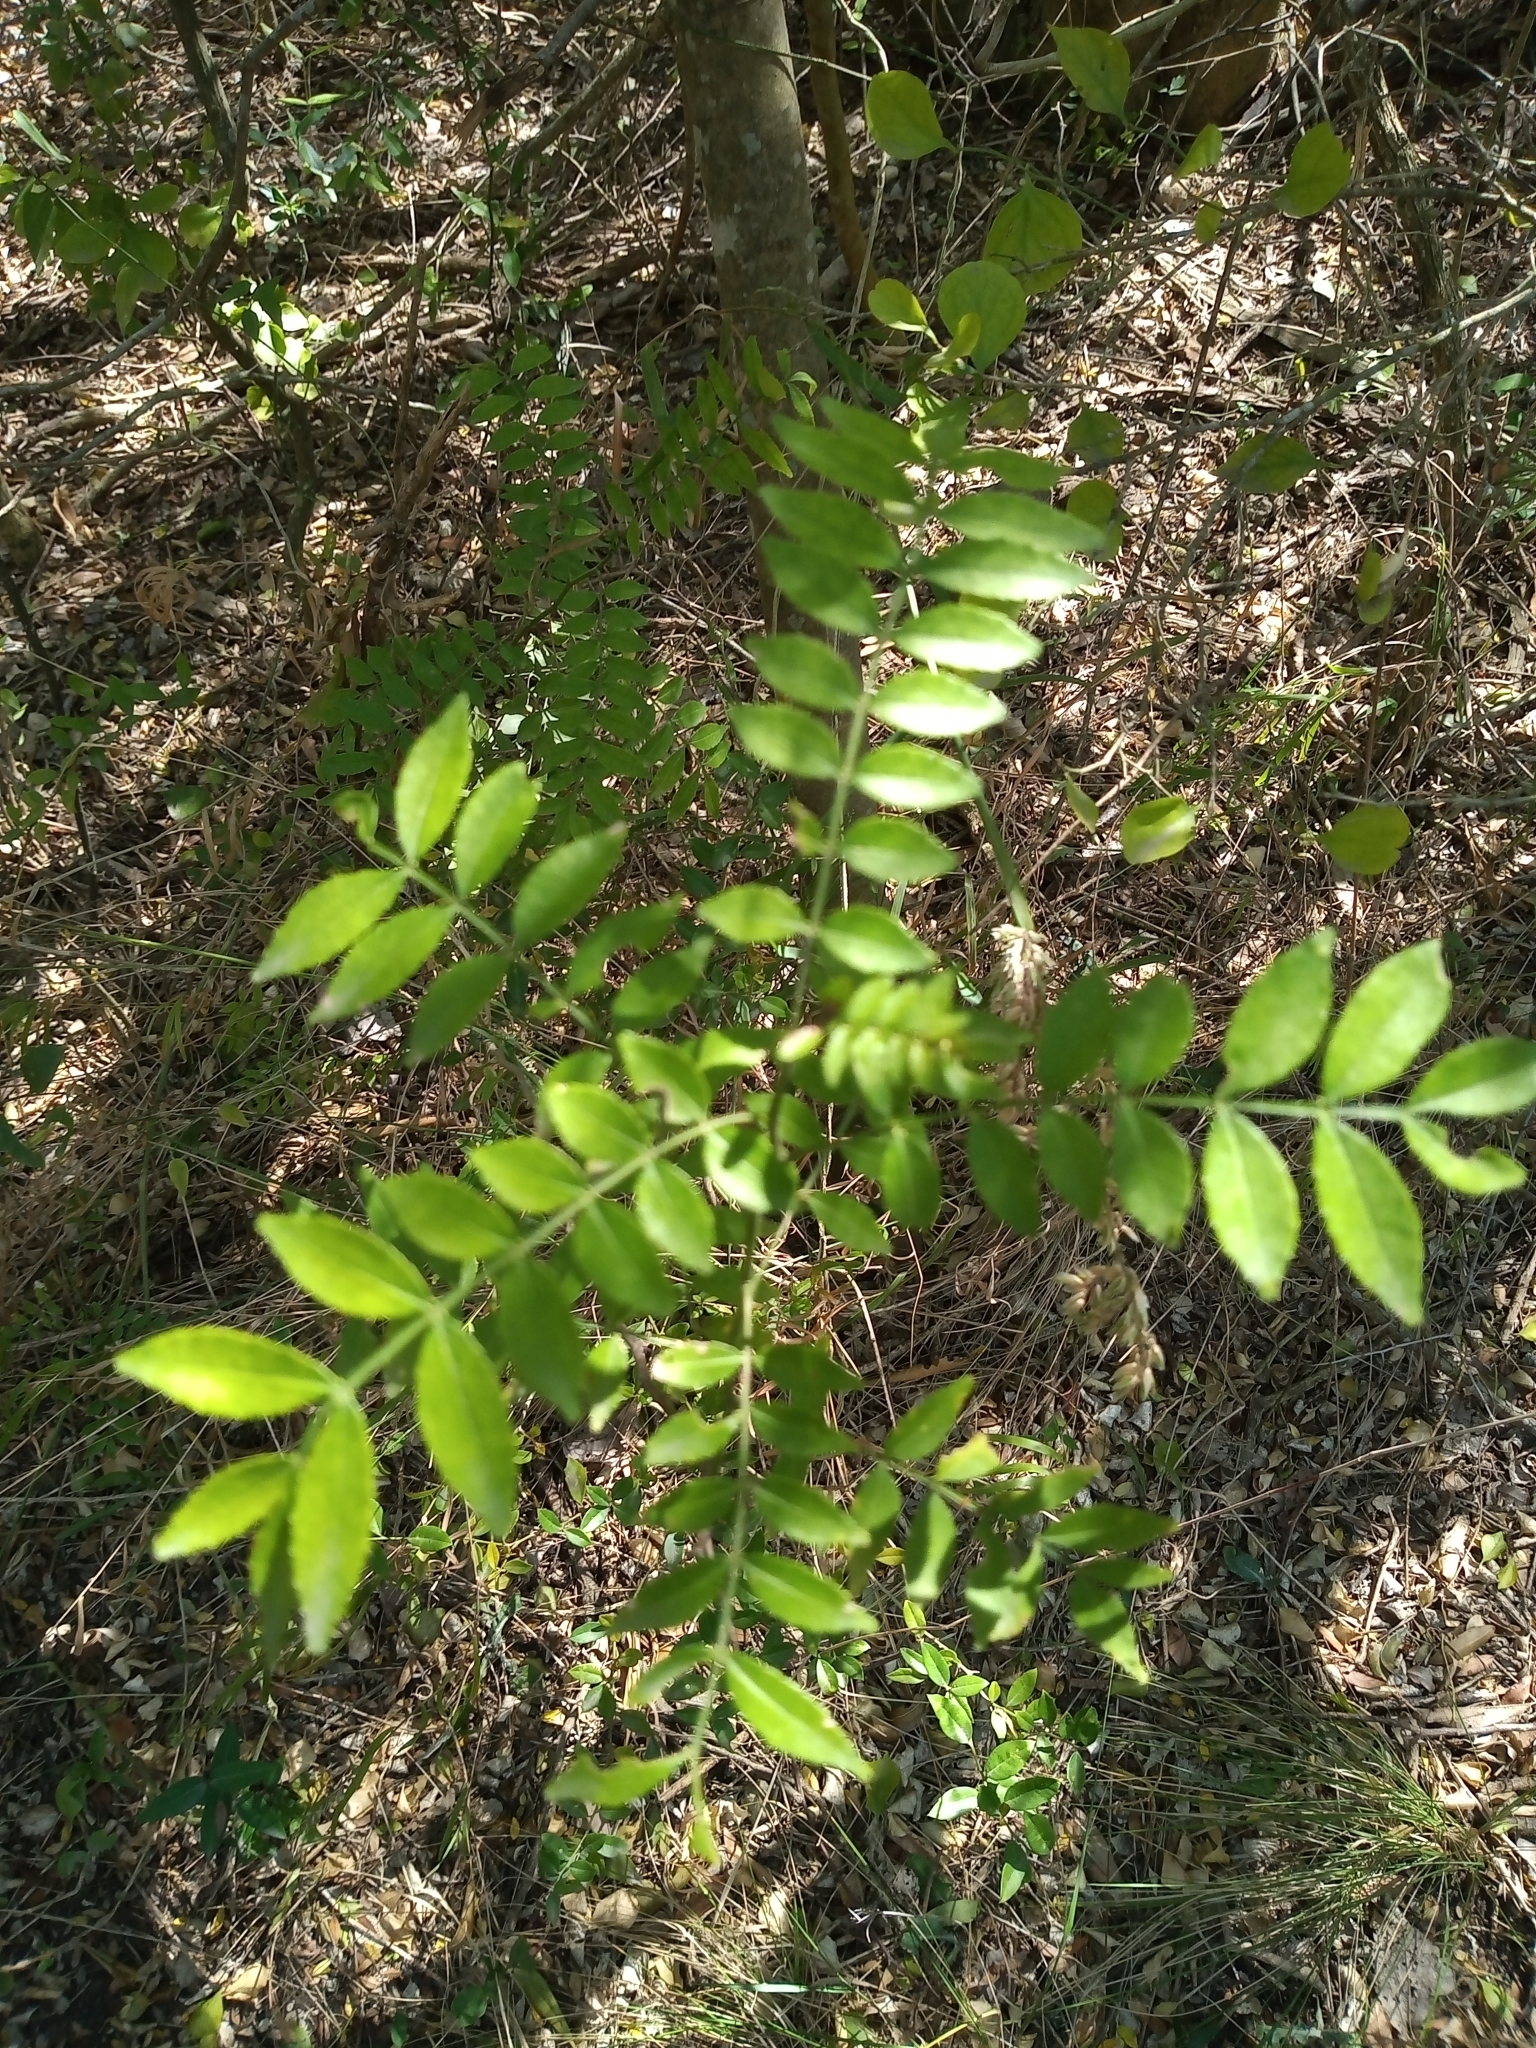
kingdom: Plantae
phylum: Tracheophyta
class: Magnoliopsida
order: Sapindales
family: Rutaceae
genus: Zanthoxylum
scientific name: Zanthoxylum fagara
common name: Lime prickly-ash
